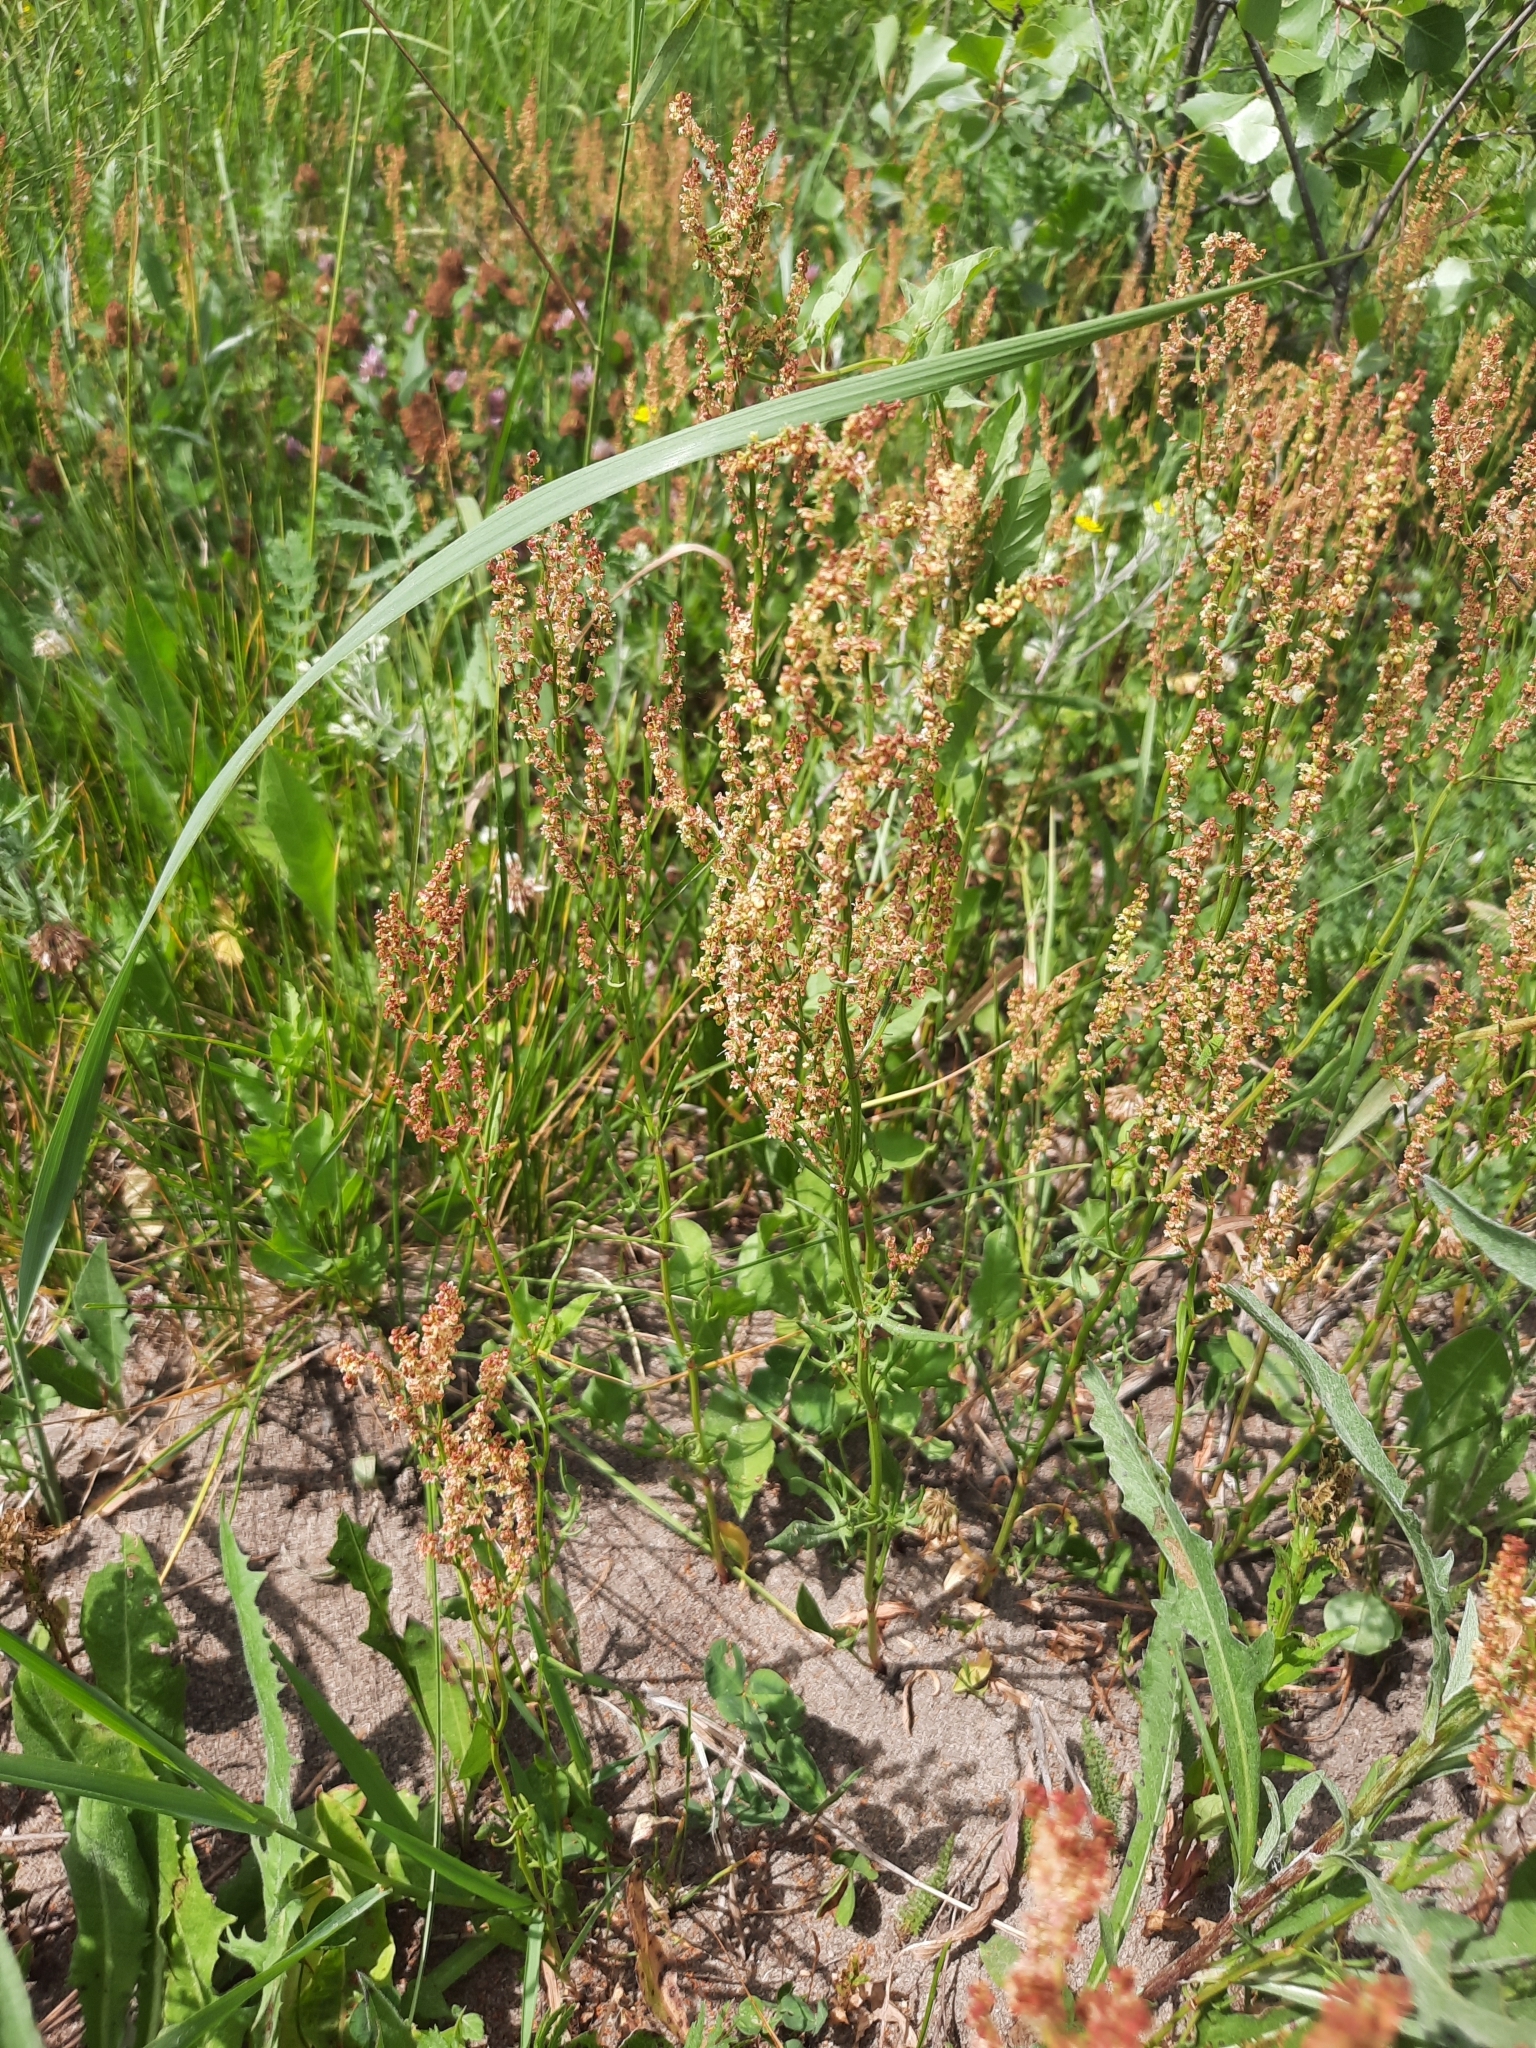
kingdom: Plantae
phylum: Tracheophyta
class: Magnoliopsida
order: Caryophyllales
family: Polygonaceae
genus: Rumex
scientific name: Rumex acetosella
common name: Common sheep sorrel
